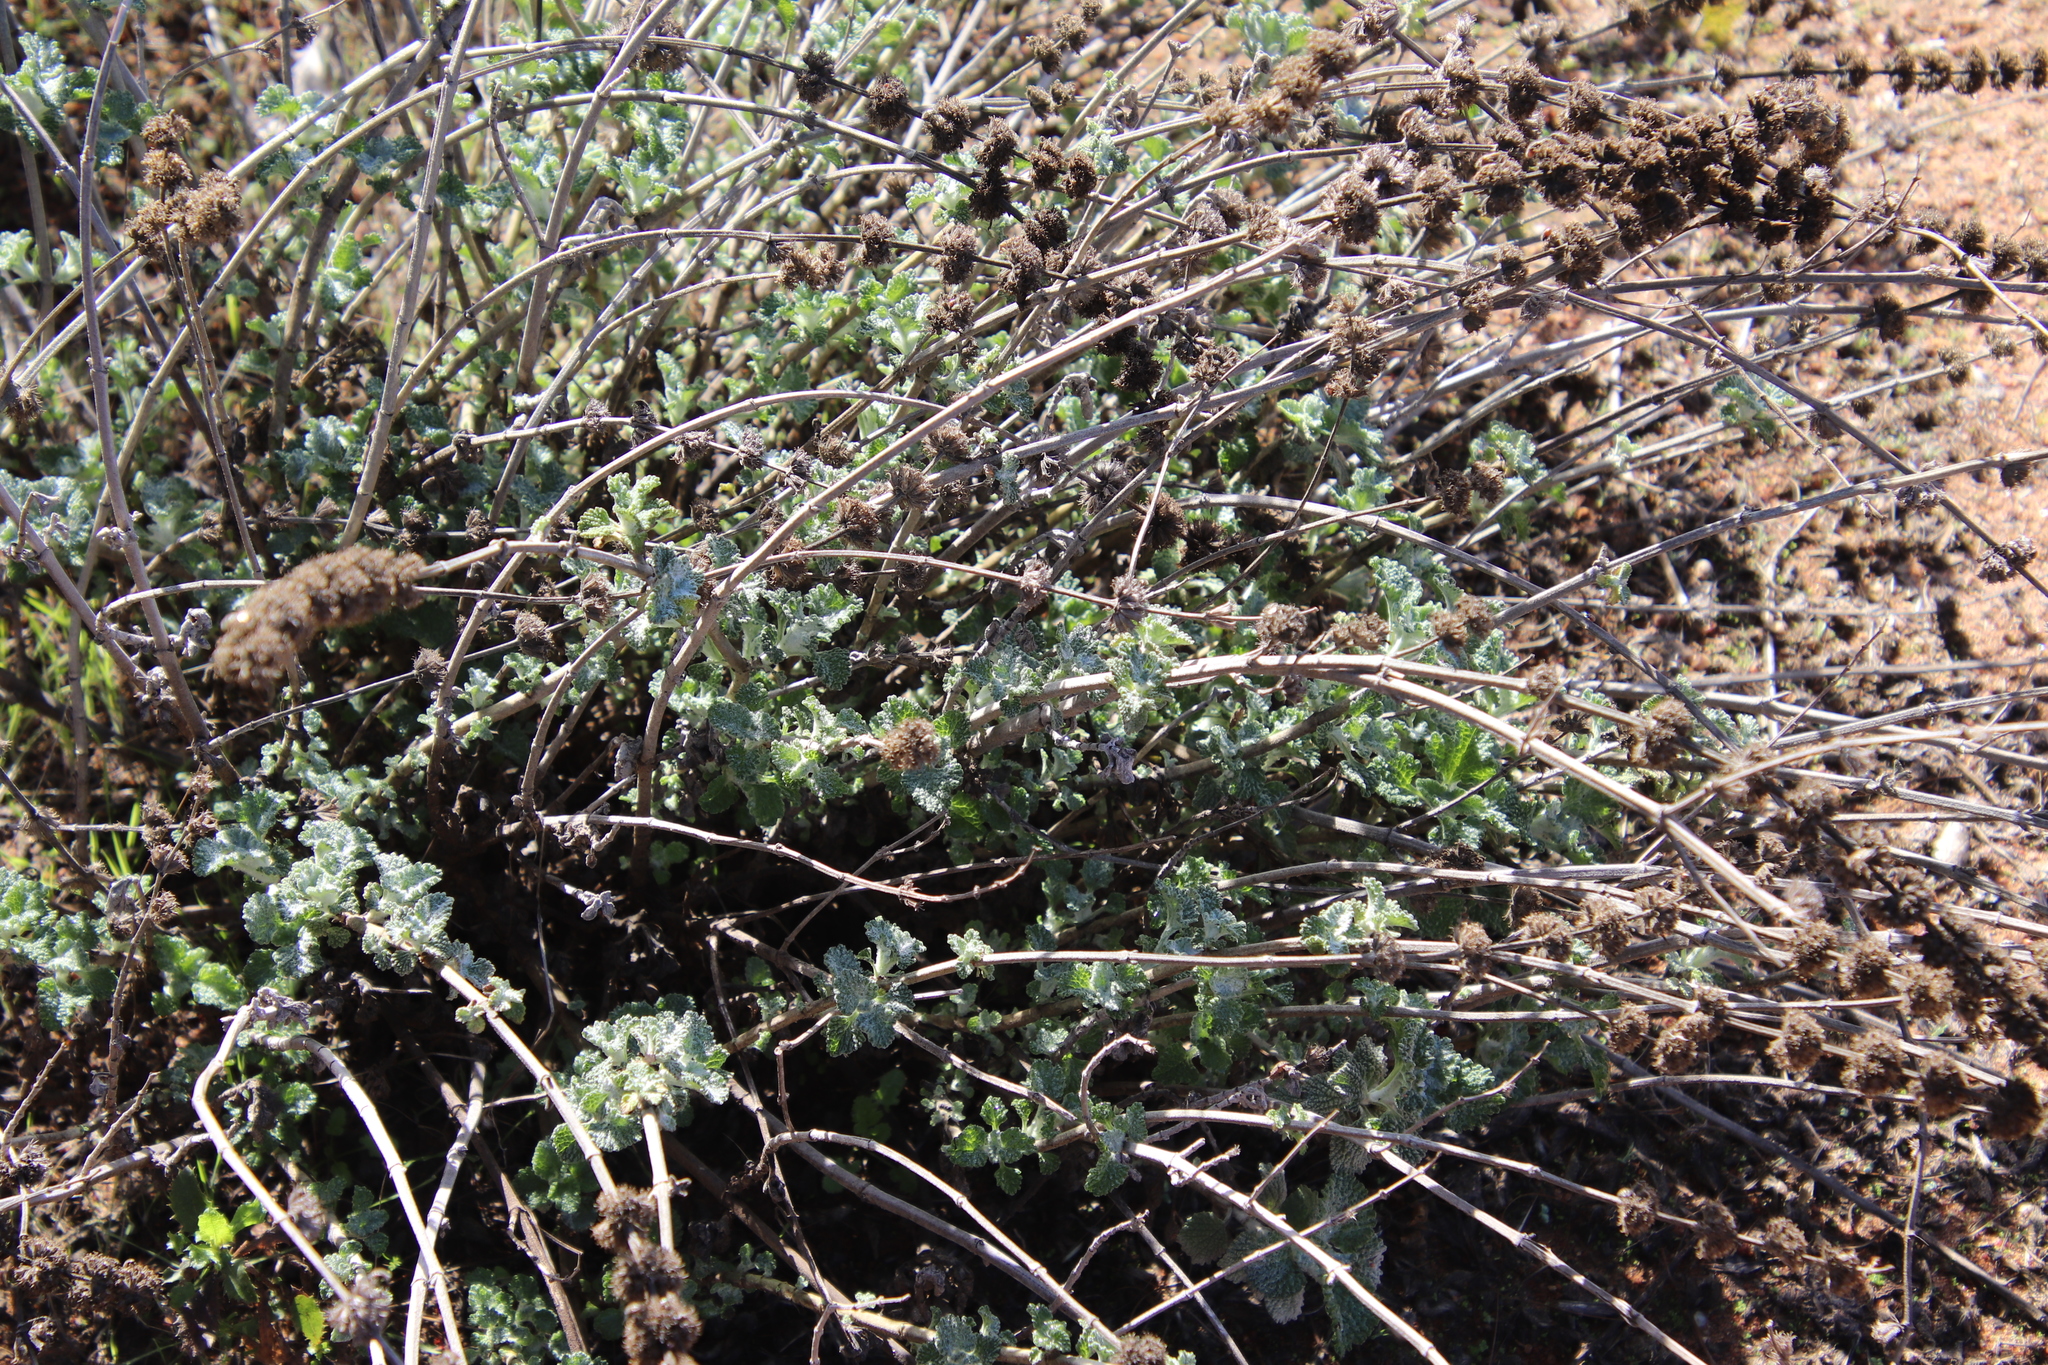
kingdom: Plantae
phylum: Tracheophyta
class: Magnoliopsida
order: Lamiales
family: Lamiaceae
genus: Marrubium
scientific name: Marrubium vulgare
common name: Horehound
